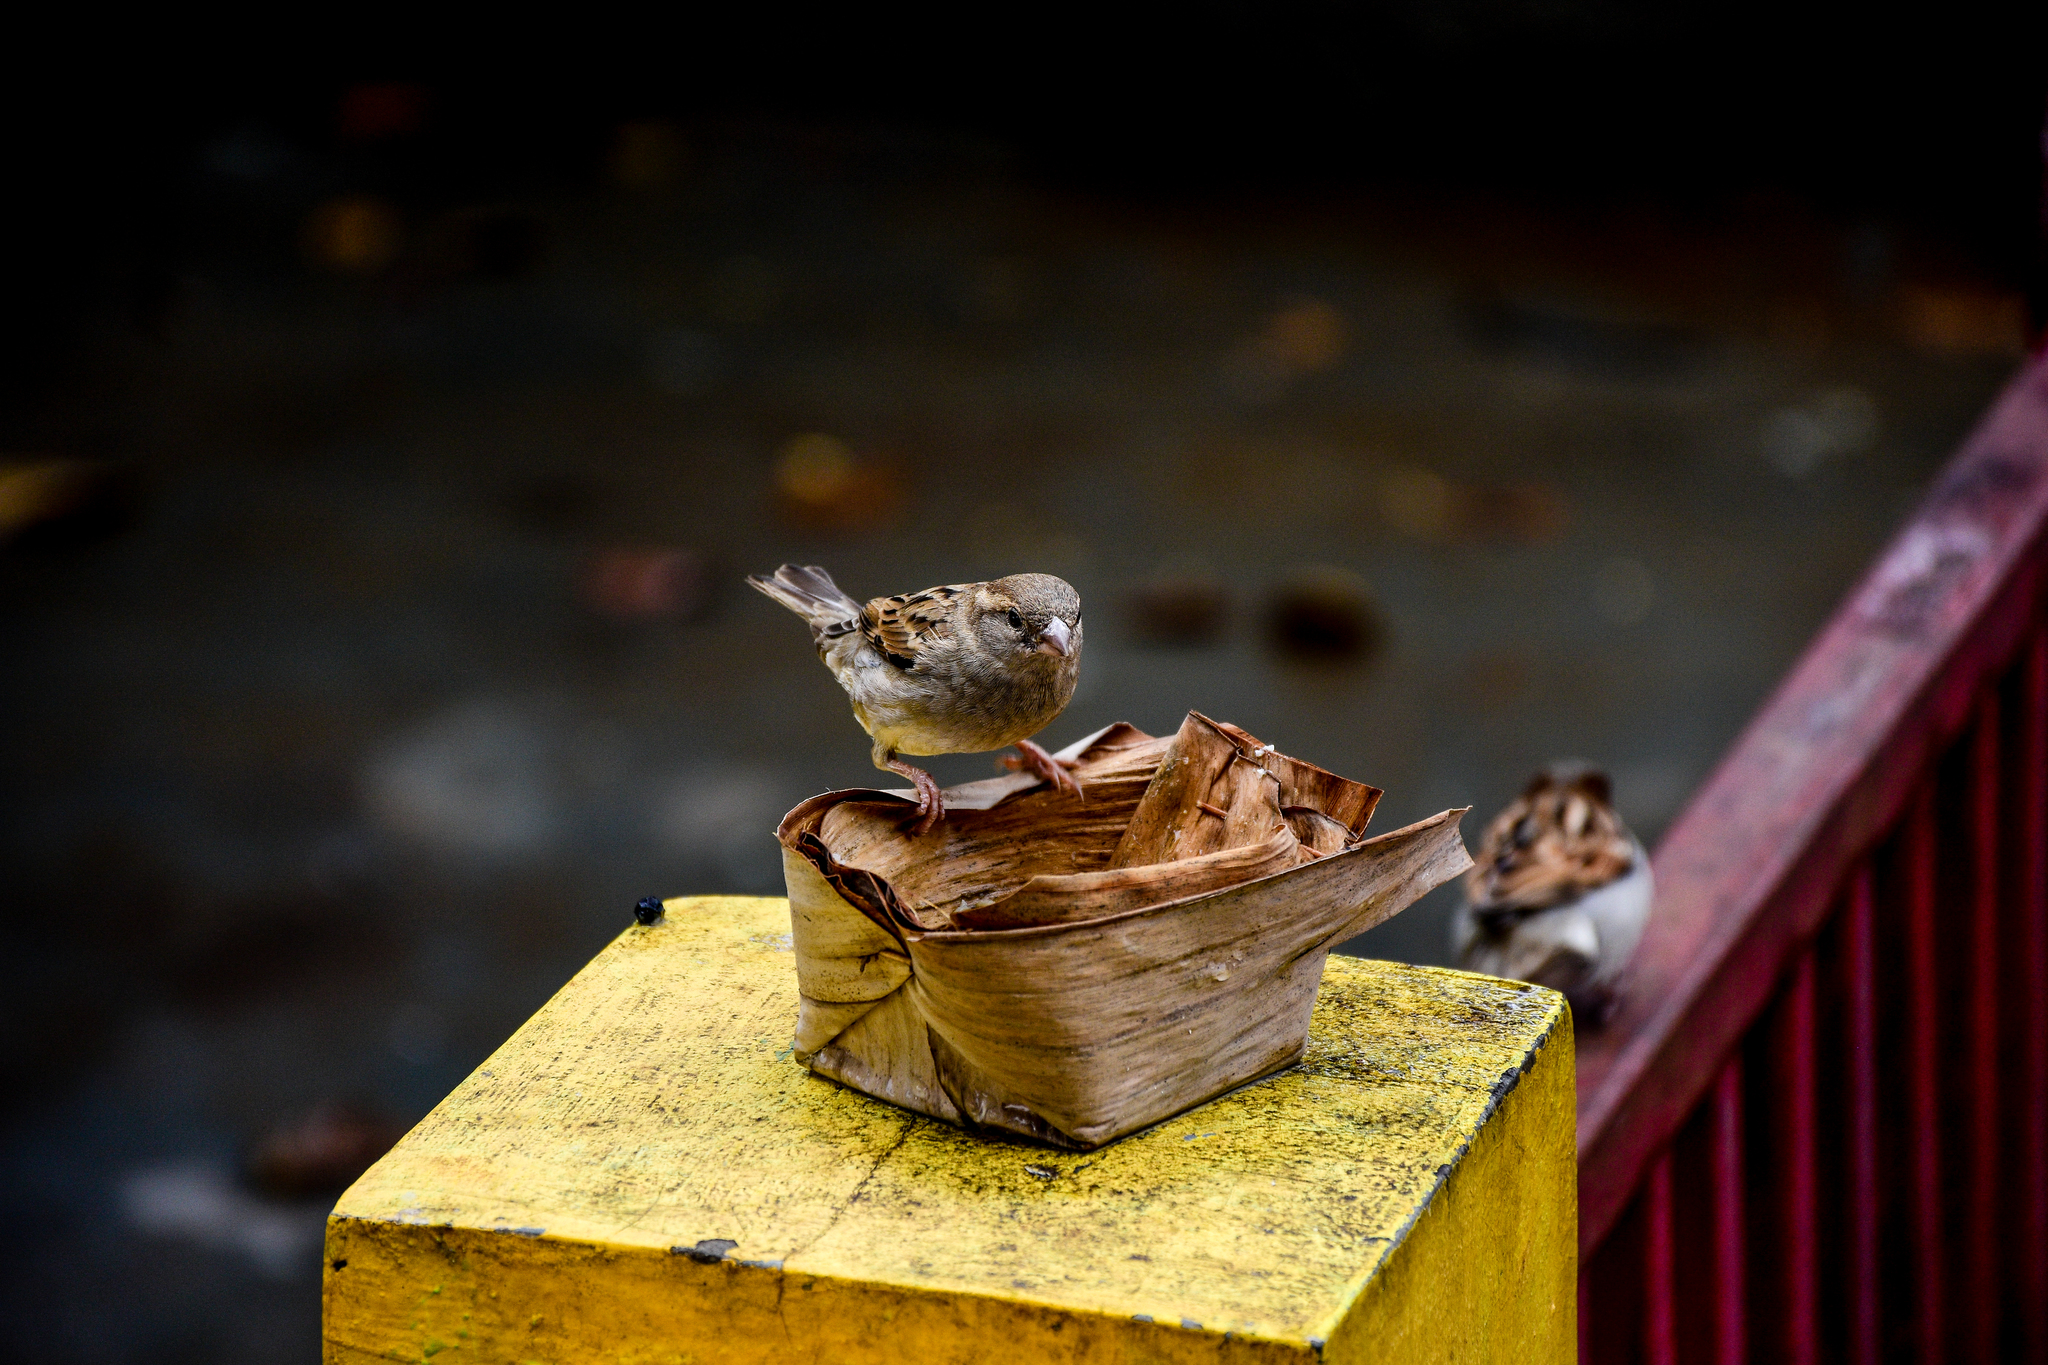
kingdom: Animalia
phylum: Chordata
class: Aves
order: Passeriformes
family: Passeridae
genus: Passer
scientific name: Passer domesticus
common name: House sparrow
